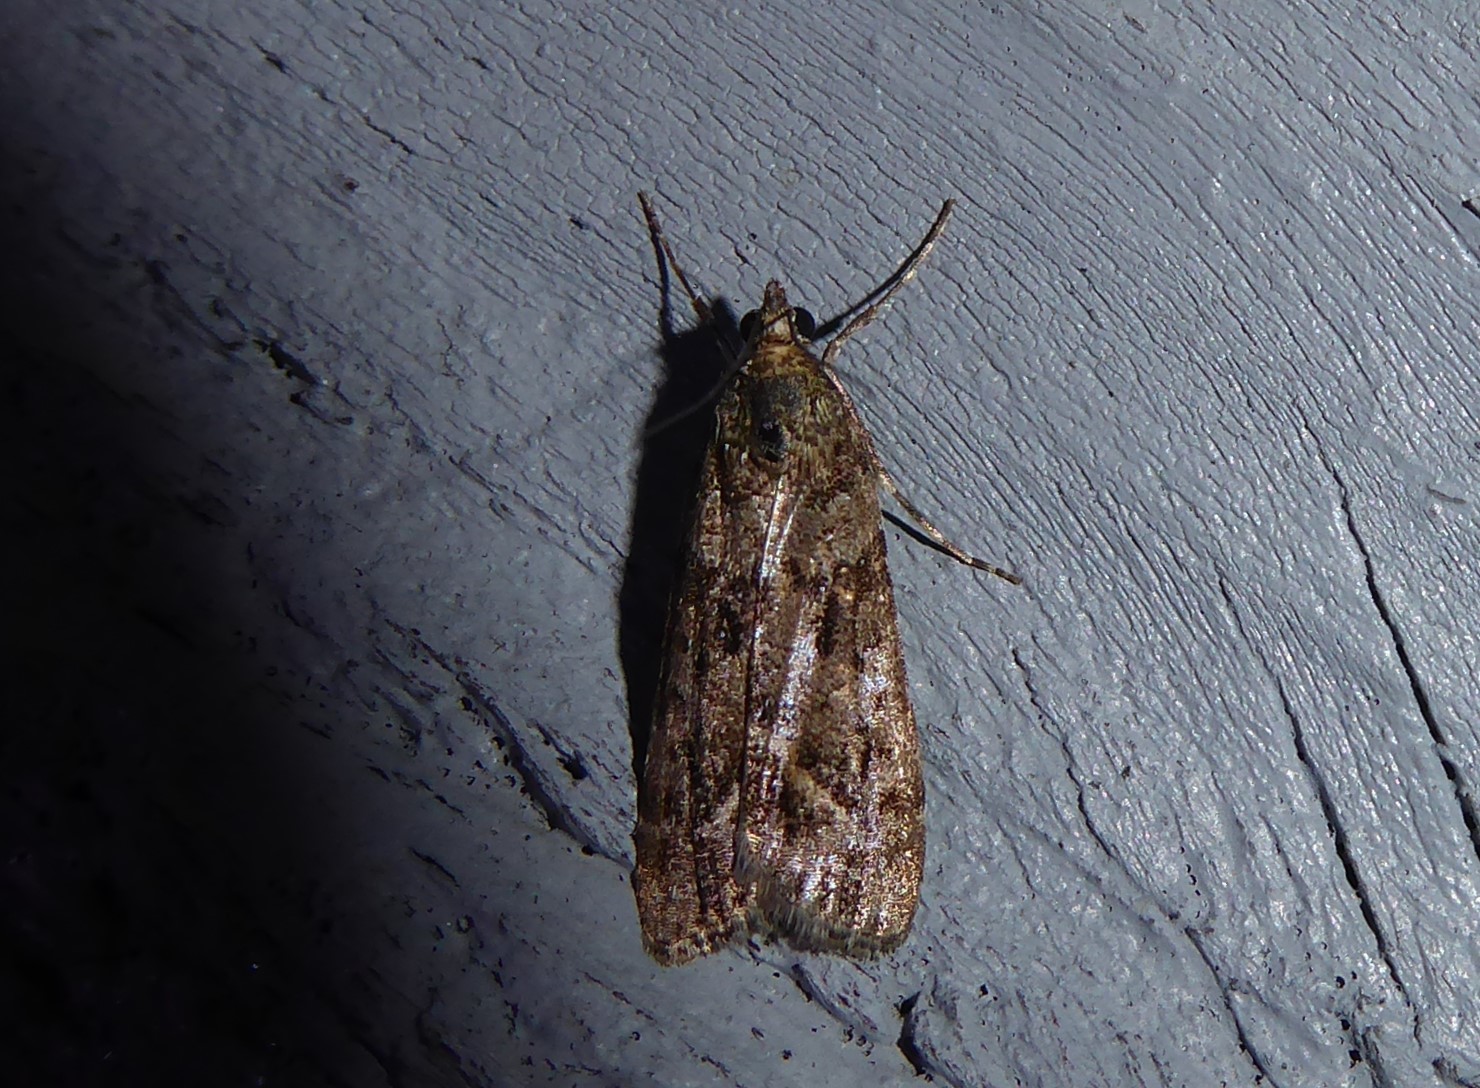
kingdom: Animalia
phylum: Arthropoda
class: Insecta
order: Lepidoptera
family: Crambidae
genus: Eudonia
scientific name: Eudonia submarginalis
